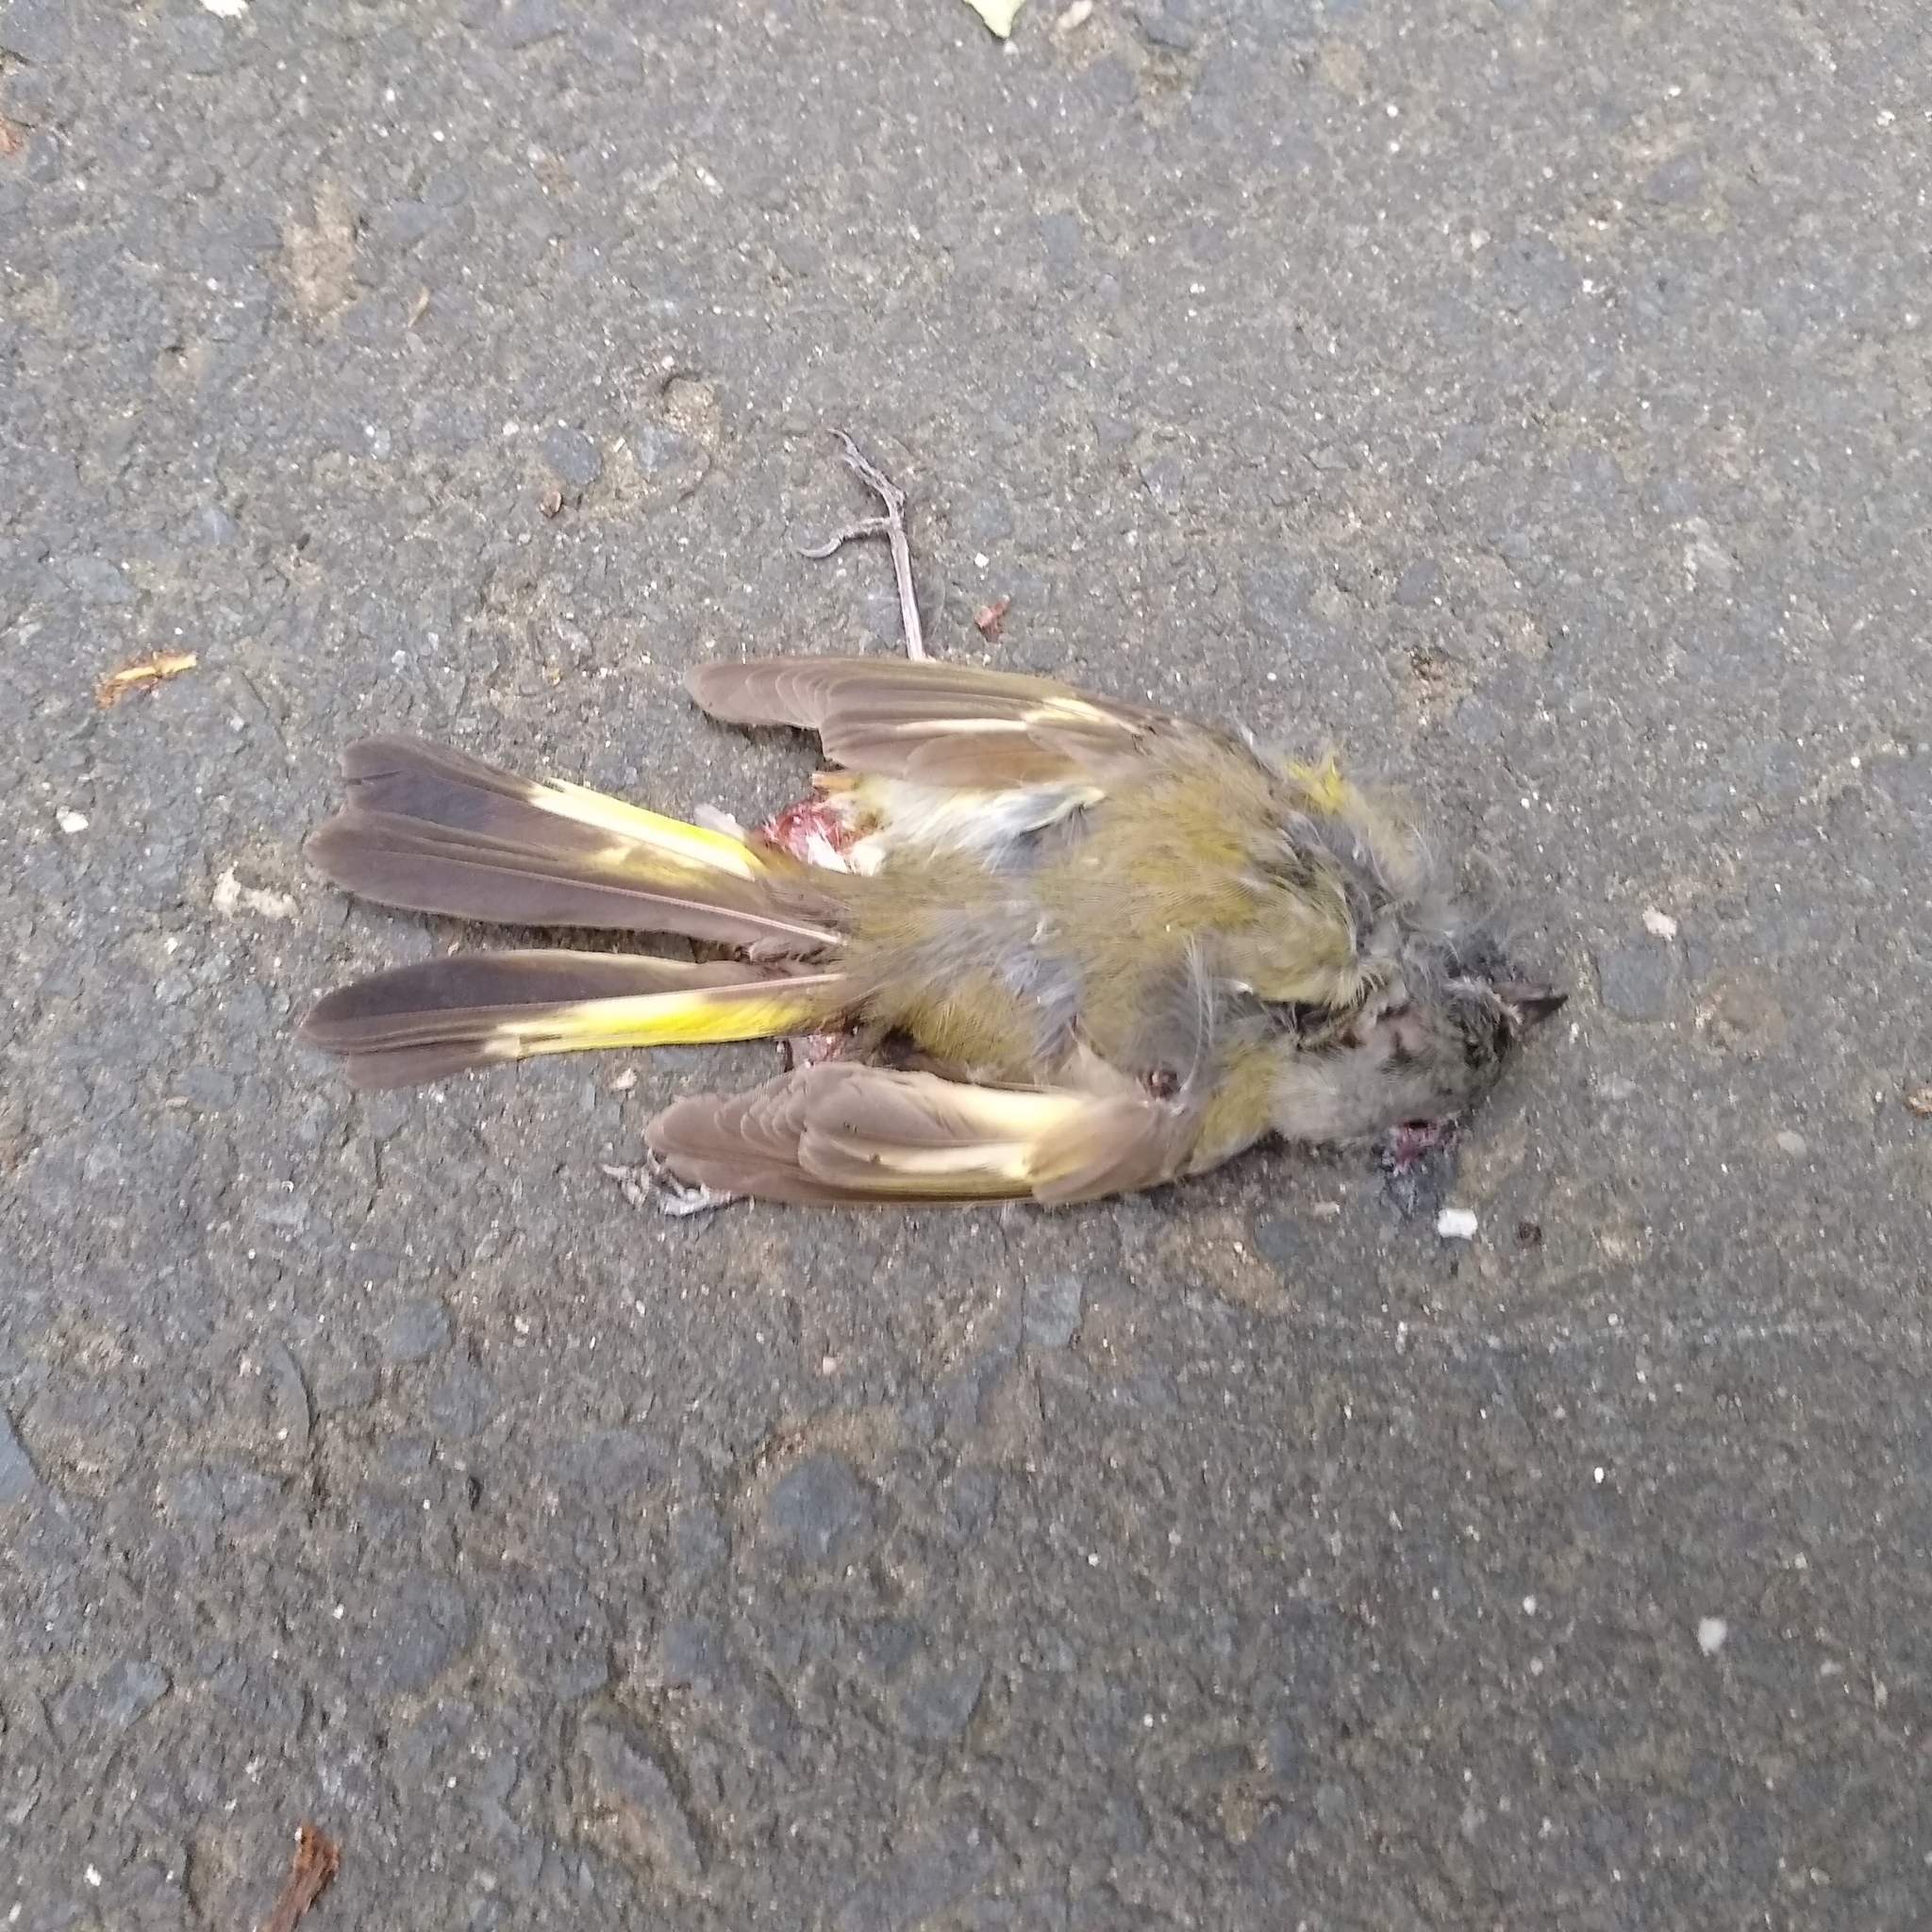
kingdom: Animalia
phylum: Chordata
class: Aves
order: Passeriformes
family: Parulidae
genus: Setophaga
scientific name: Setophaga ruticilla
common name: American redstart
